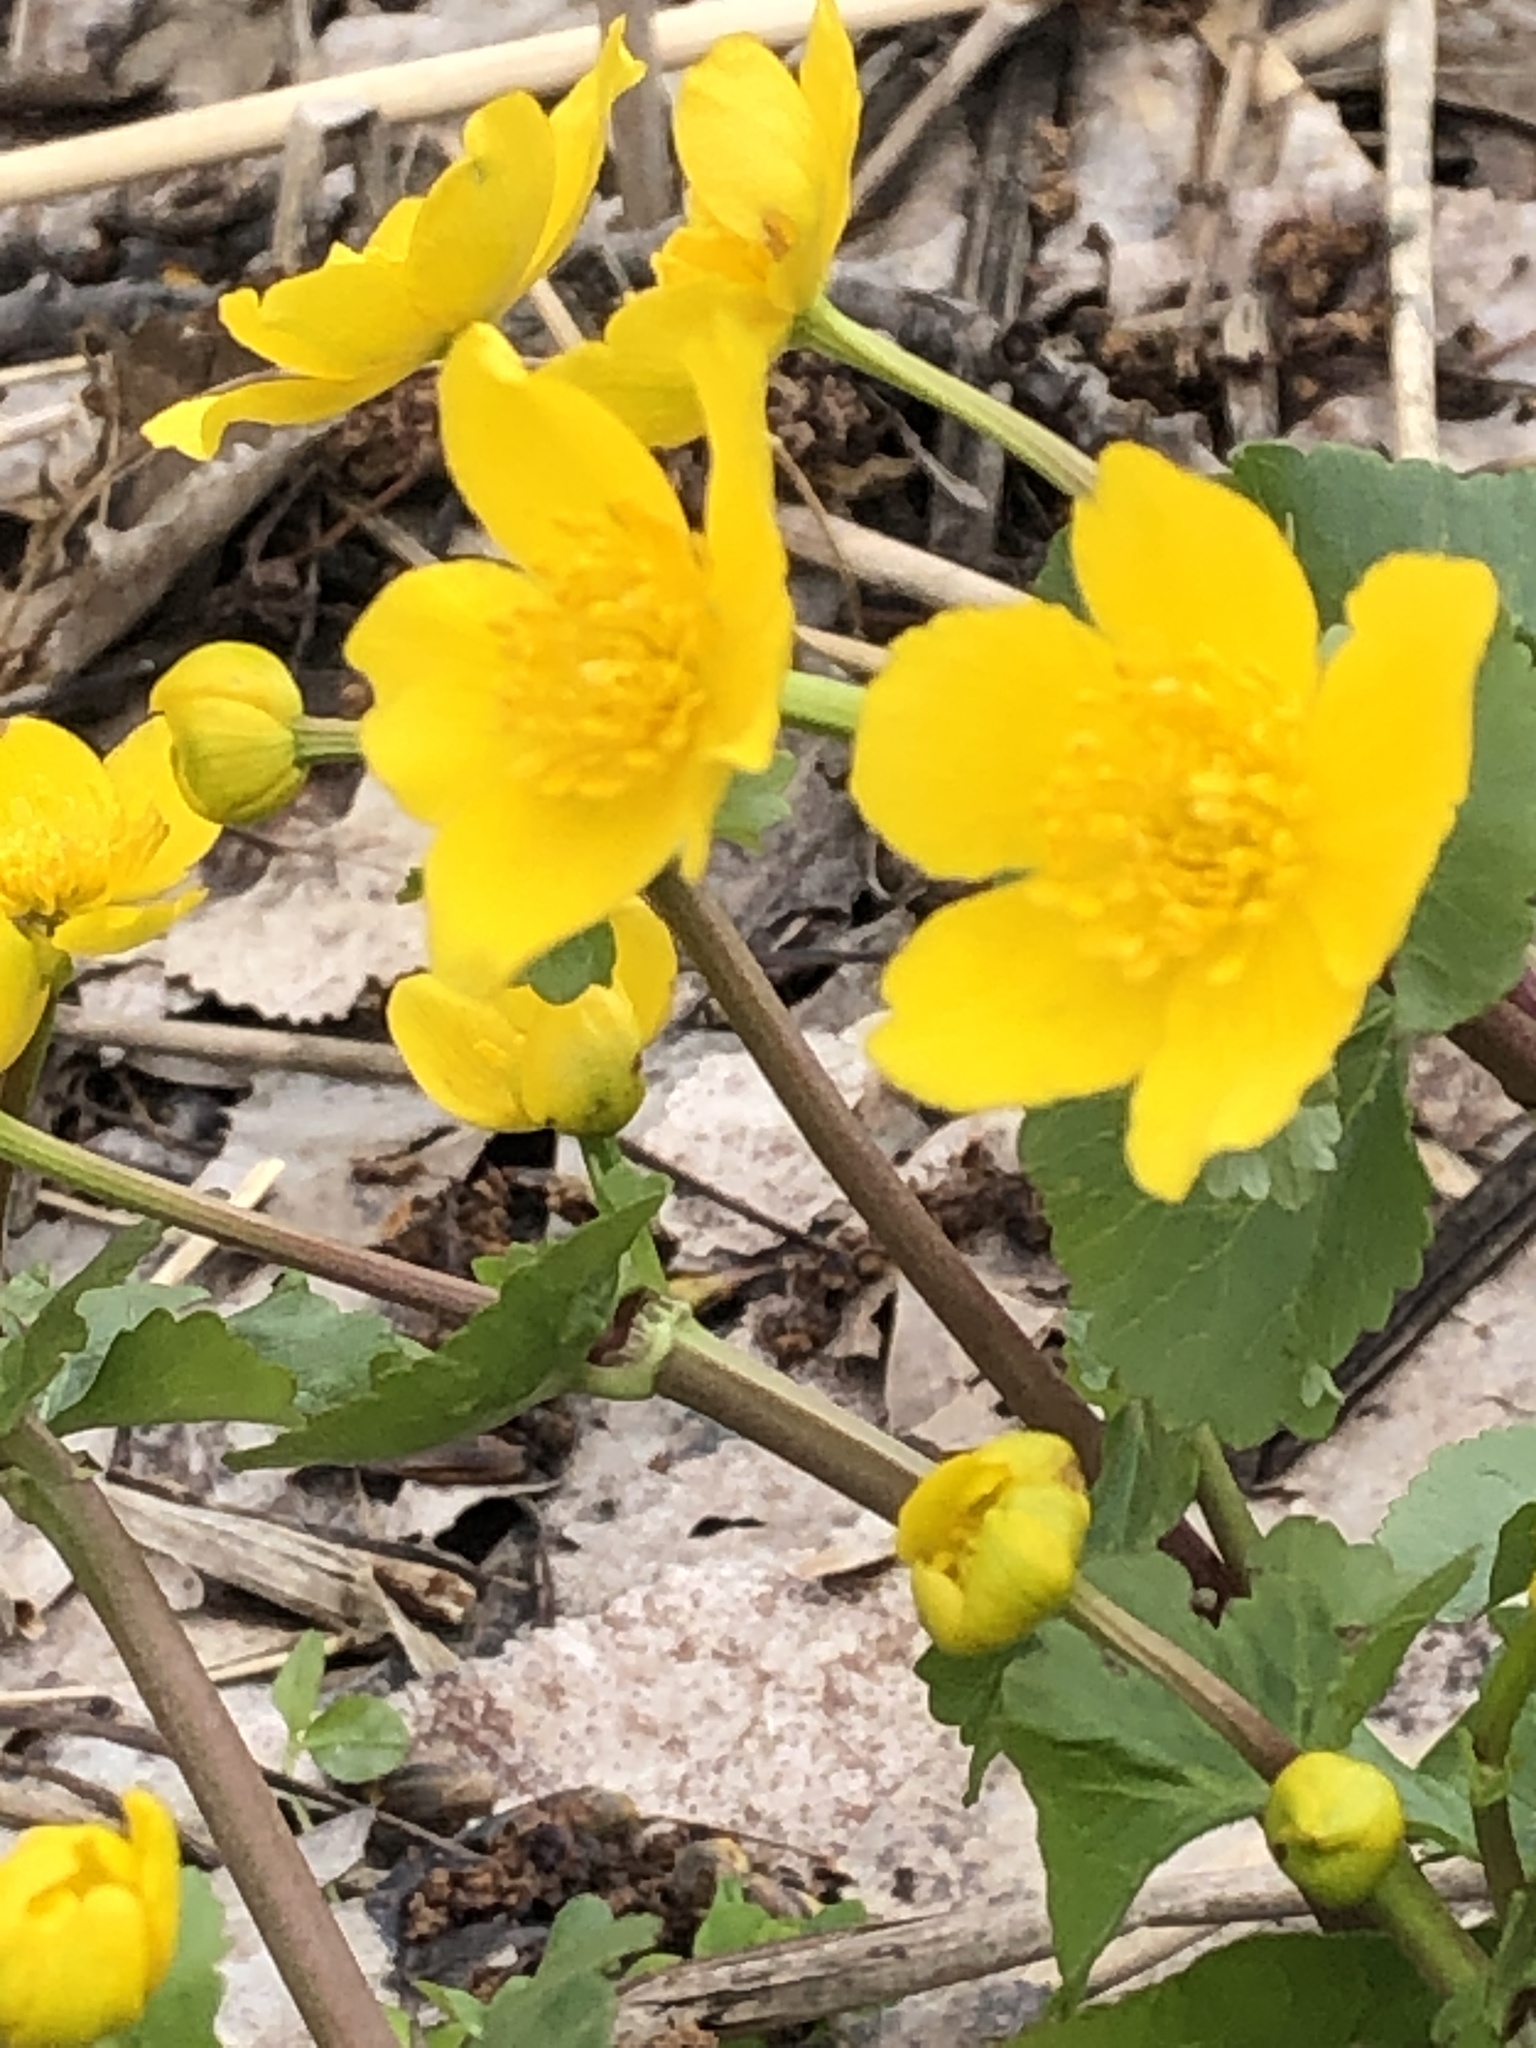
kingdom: Plantae
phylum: Tracheophyta
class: Magnoliopsida
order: Ranunculales
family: Ranunculaceae
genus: Caltha
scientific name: Caltha palustris
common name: Marsh marigold
